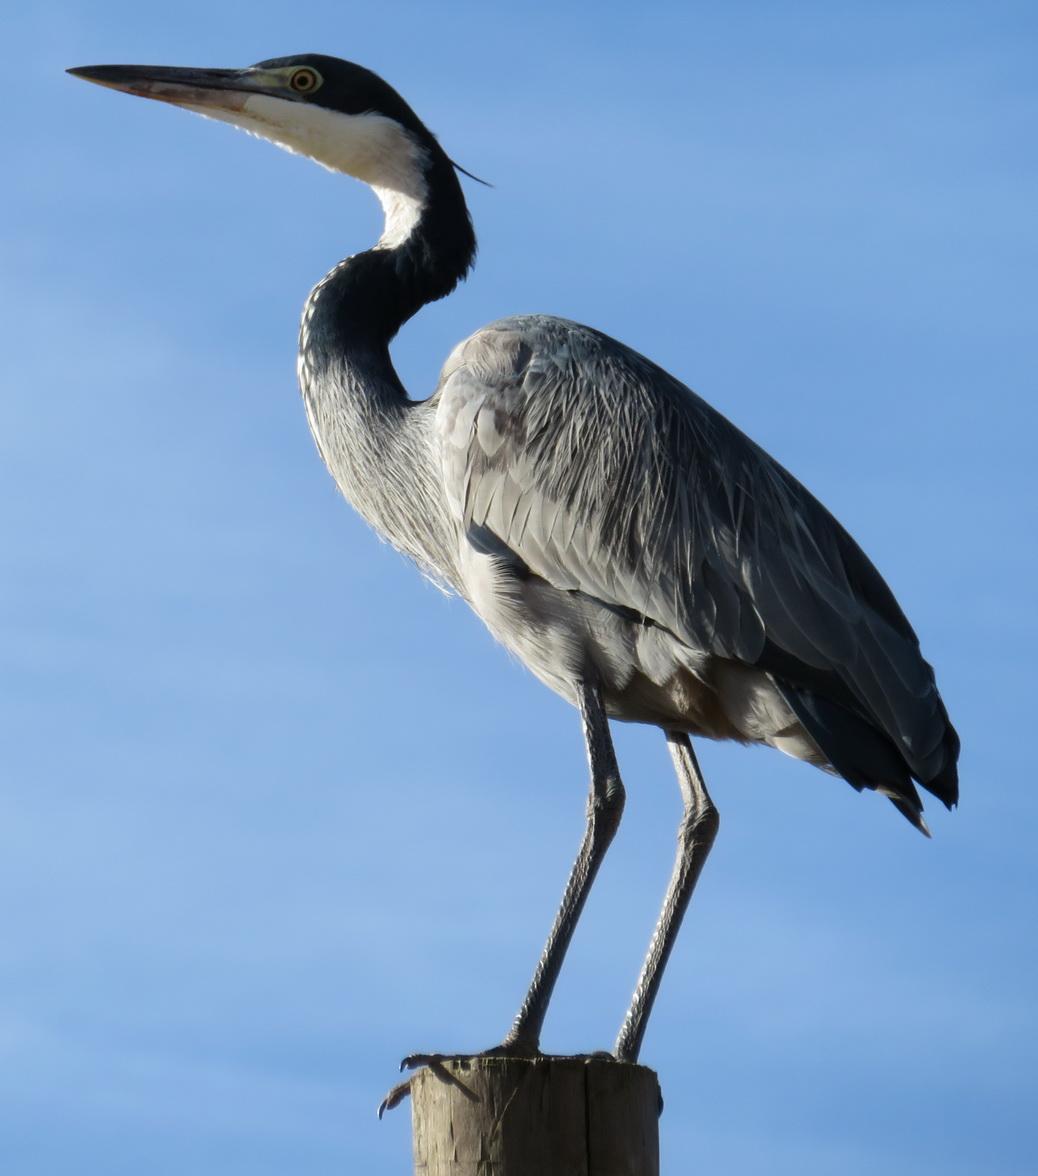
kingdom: Animalia
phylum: Chordata
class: Aves
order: Pelecaniformes
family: Ardeidae
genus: Ardea
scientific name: Ardea melanocephala
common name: Black-headed heron
